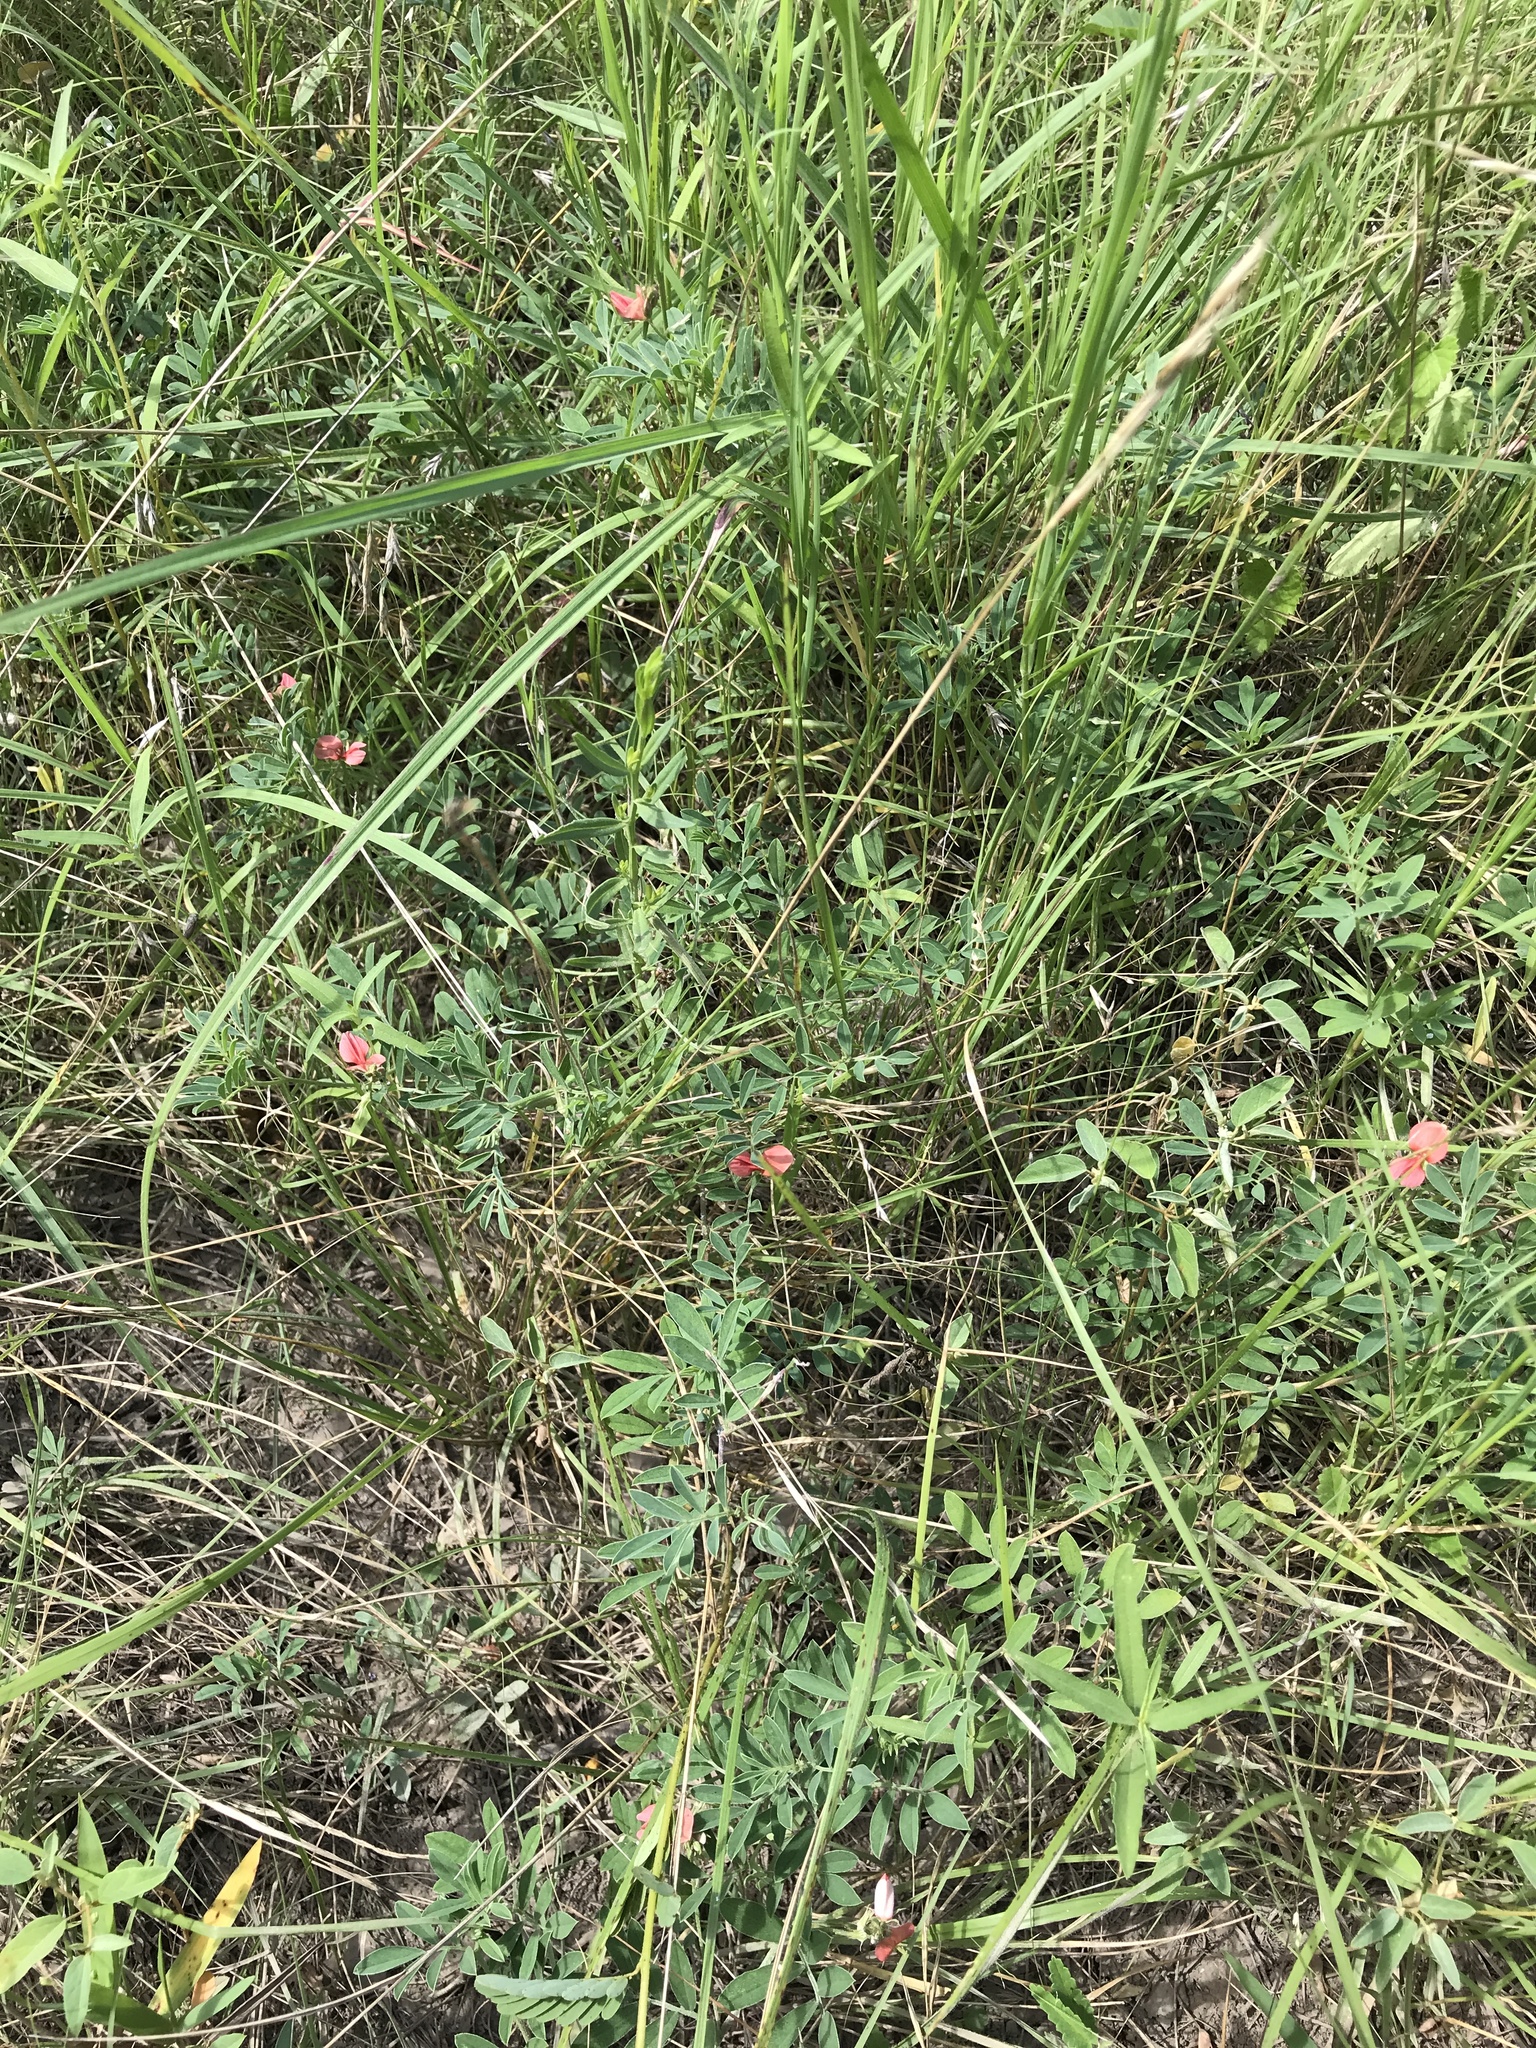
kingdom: Plantae
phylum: Tracheophyta
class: Magnoliopsida
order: Fabales
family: Fabaceae
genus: Indigofera
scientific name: Indigofera miniata
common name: Coast indigo
